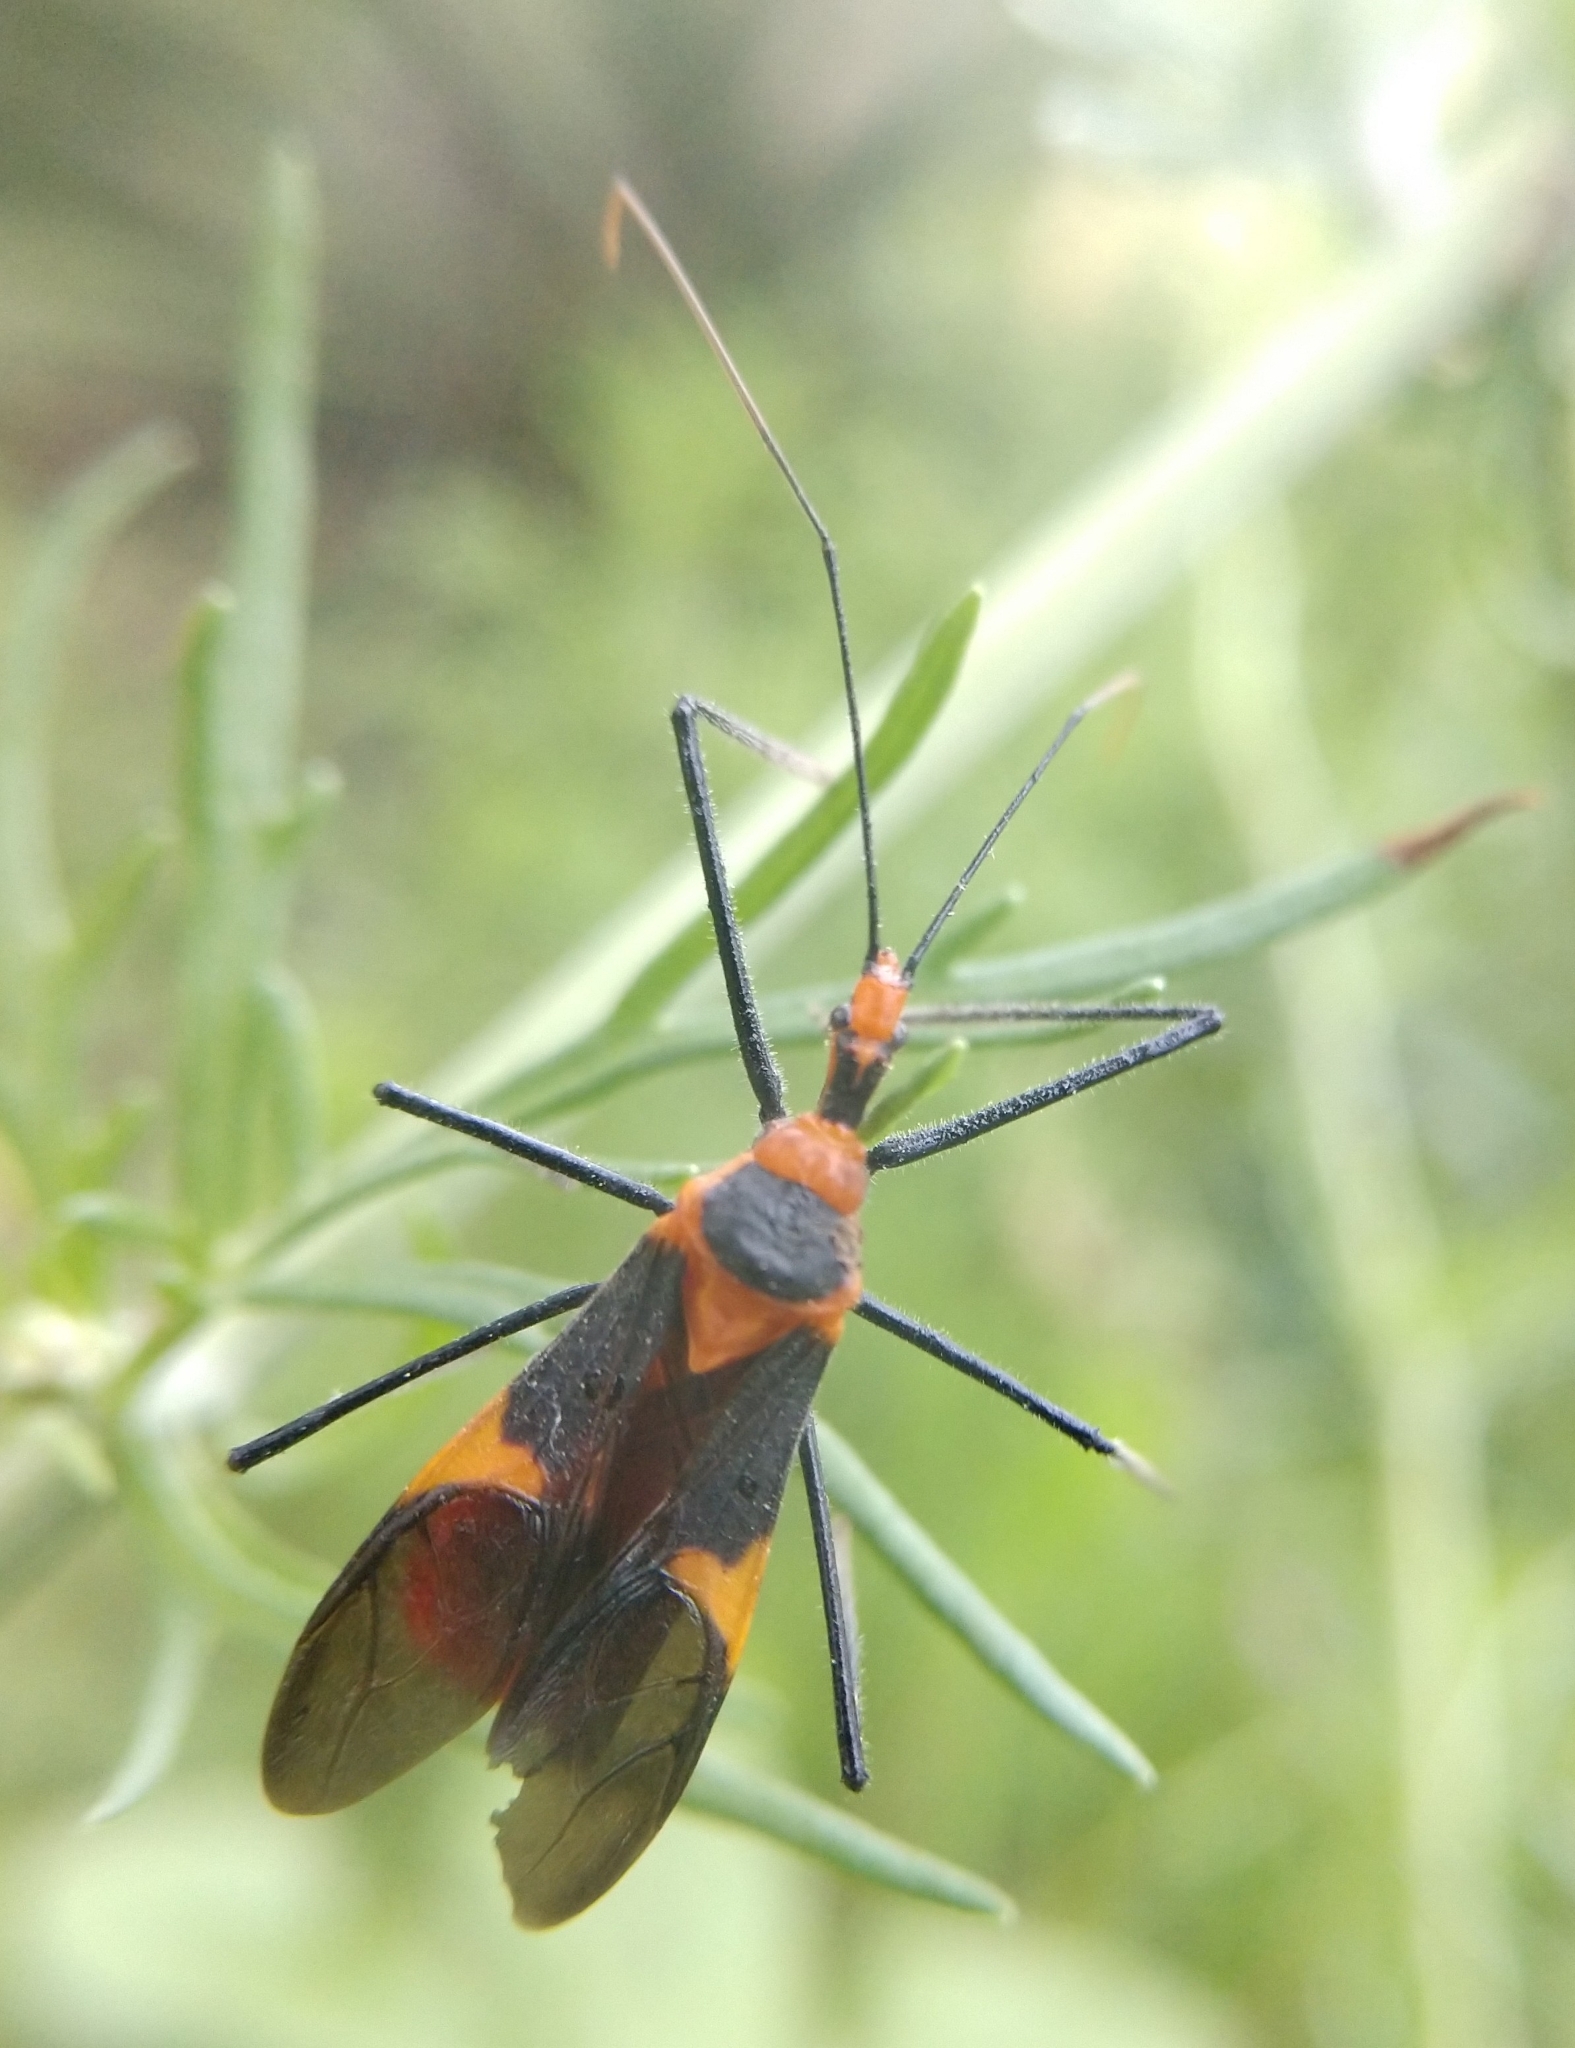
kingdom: Animalia
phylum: Arthropoda
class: Insecta
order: Hemiptera
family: Reduviidae
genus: Zelus
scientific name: Zelus longipes
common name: Milkweed assassin bug
